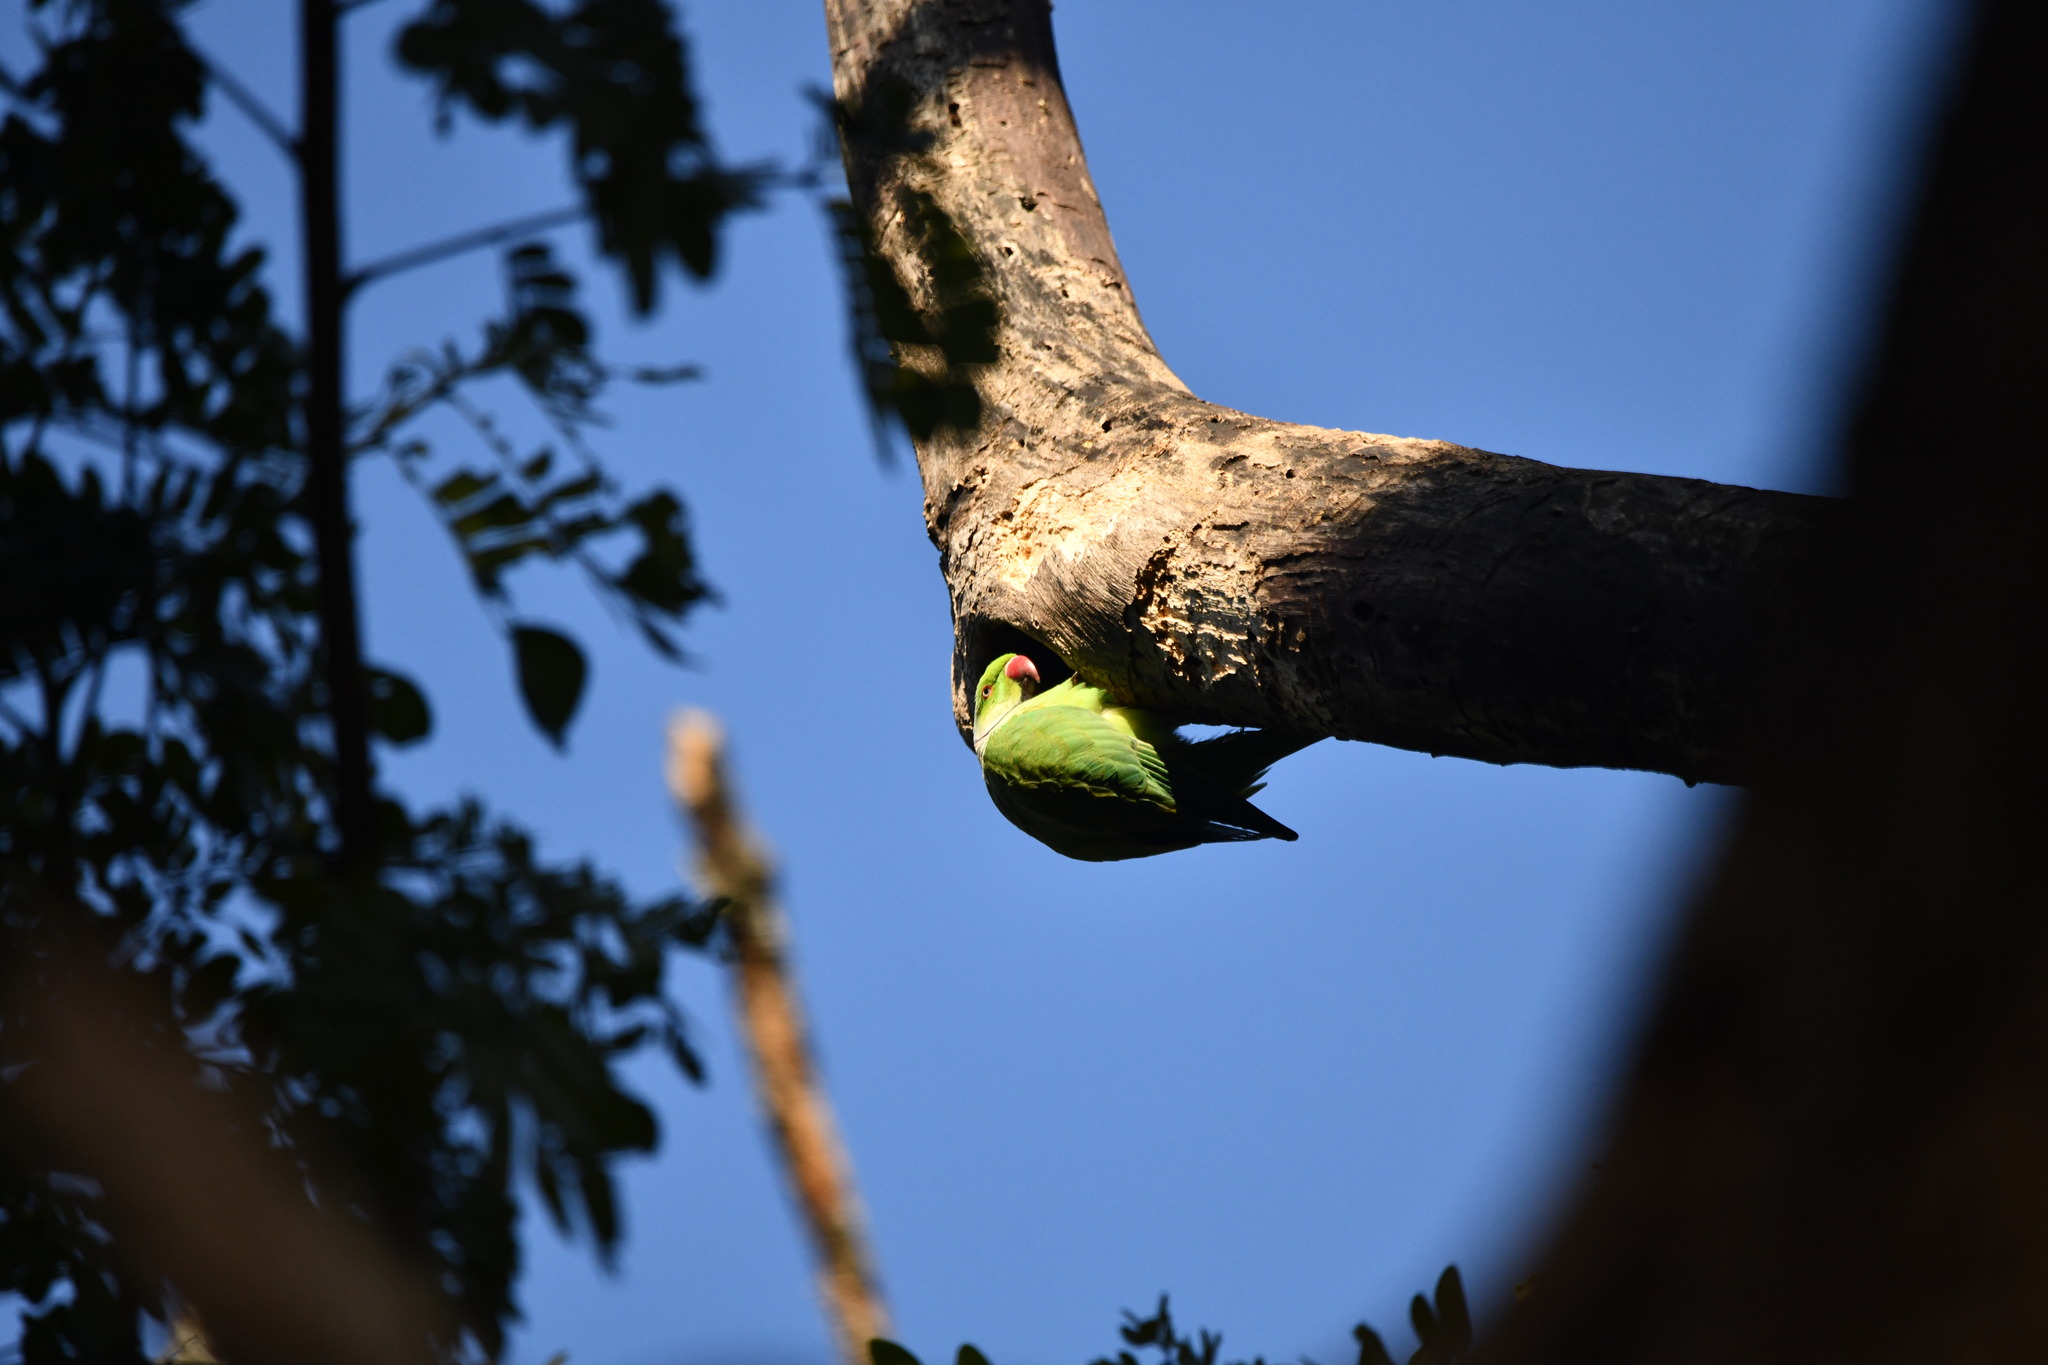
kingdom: Animalia
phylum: Chordata
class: Aves
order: Psittaciformes
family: Psittacidae
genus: Psittacula
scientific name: Psittacula krameri
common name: Rose-ringed parakeet
